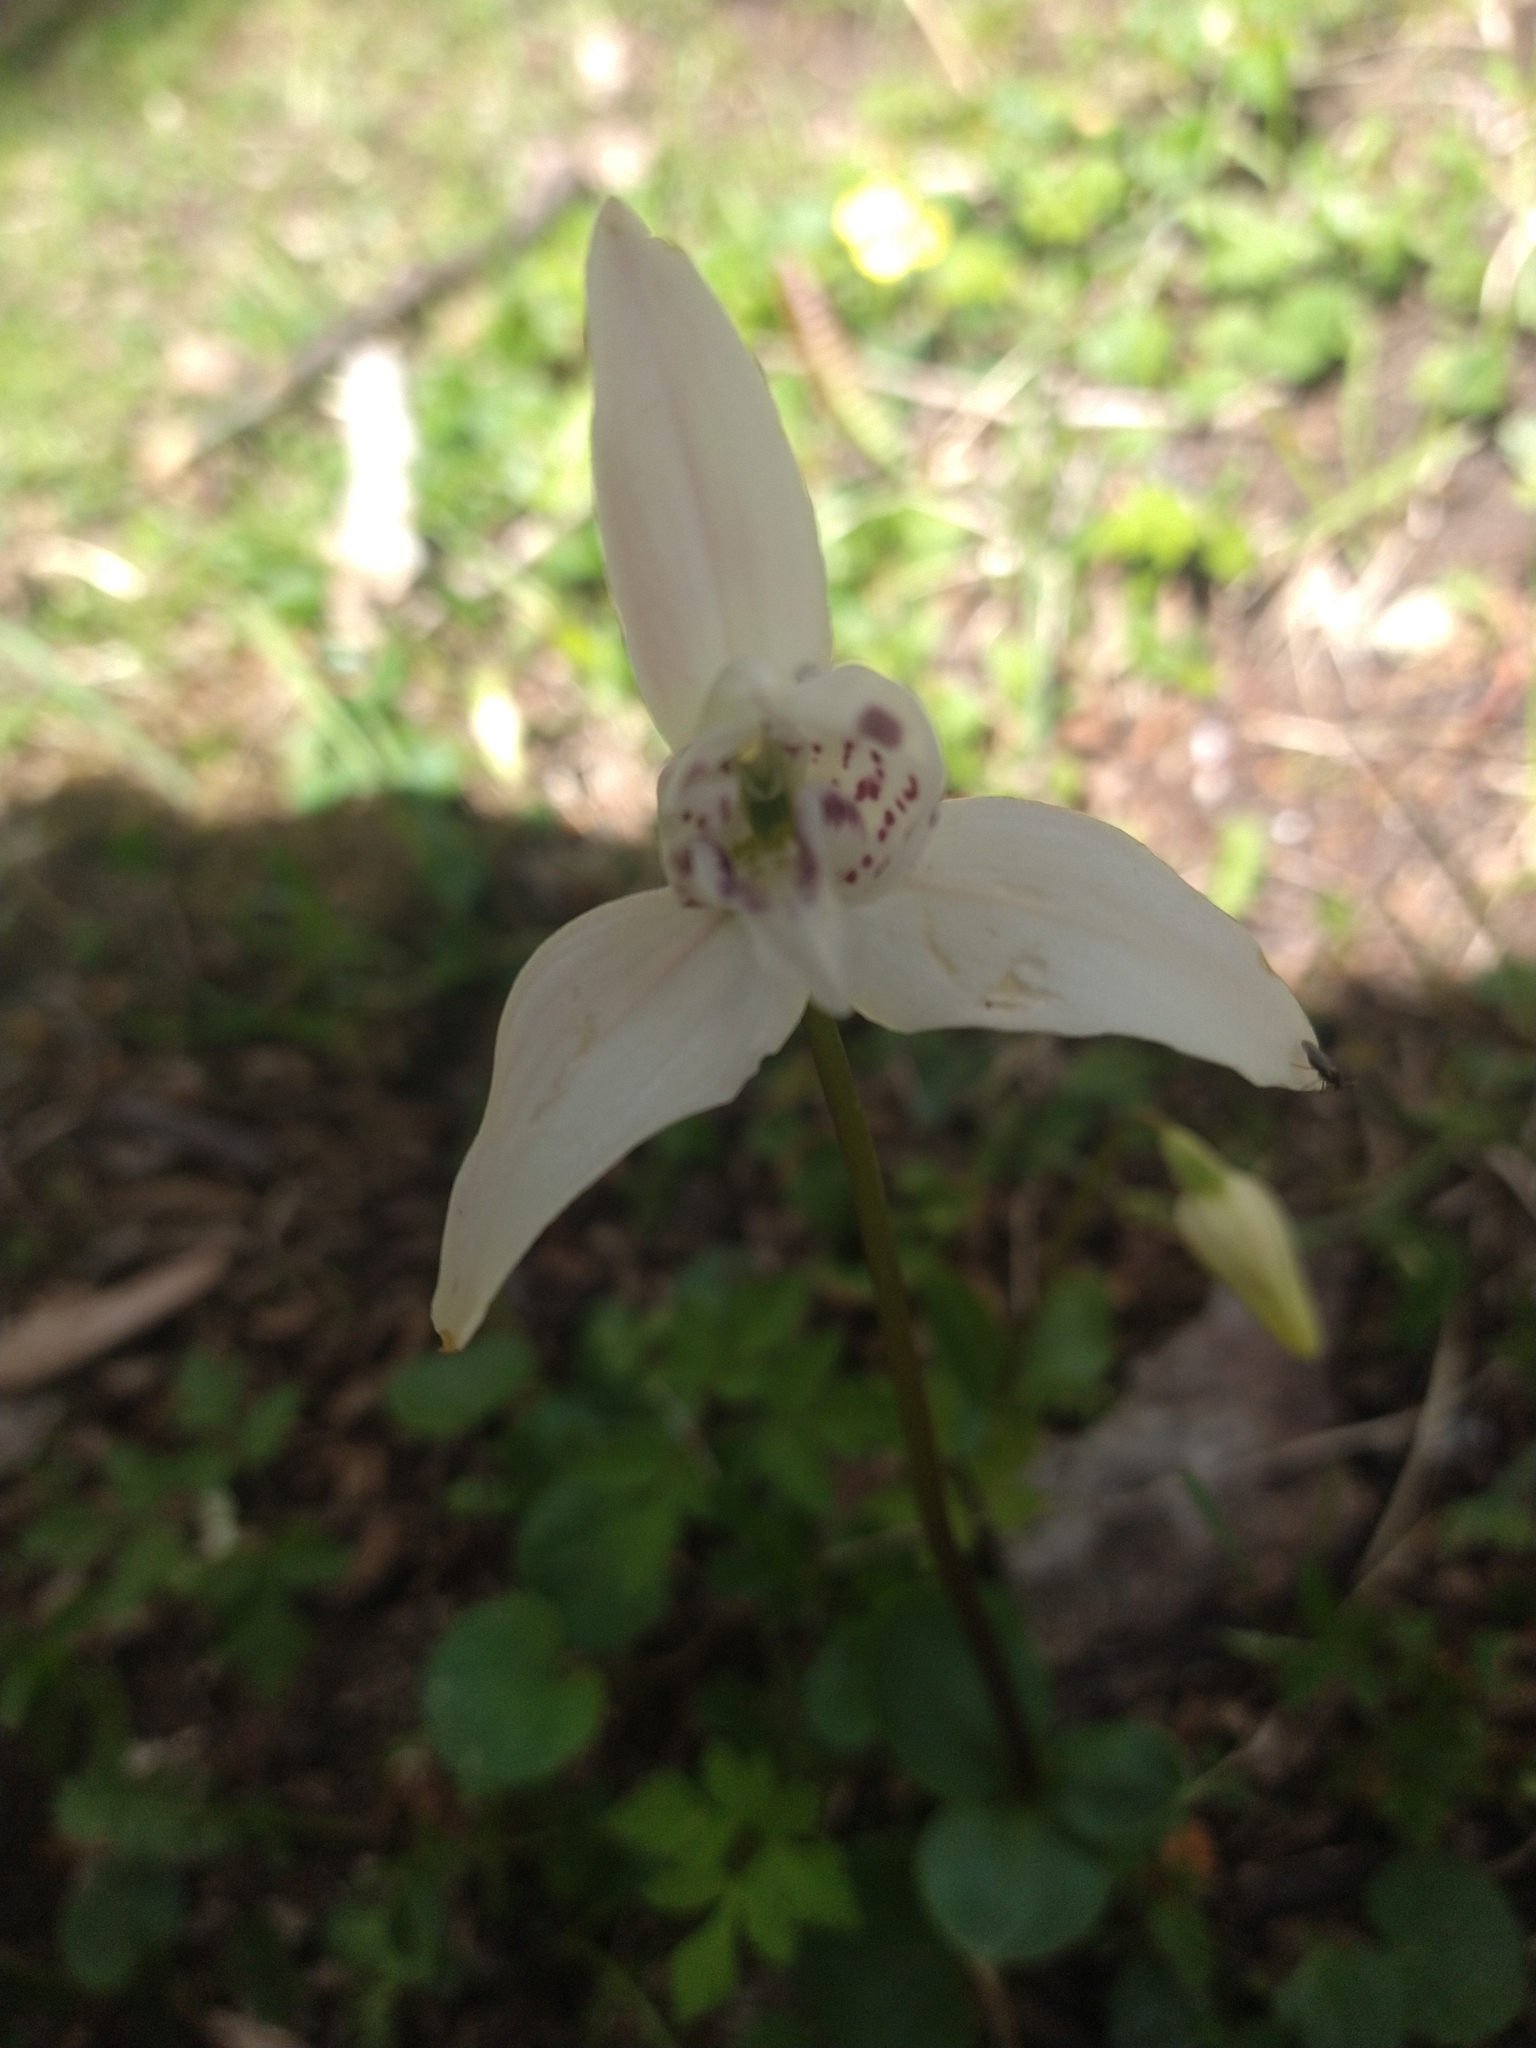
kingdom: Plantae
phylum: Tracheophyta
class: Liliopsida
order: Asparagales
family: Orchidaceae
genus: Codonorchis
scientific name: Codonorchis lessonii
